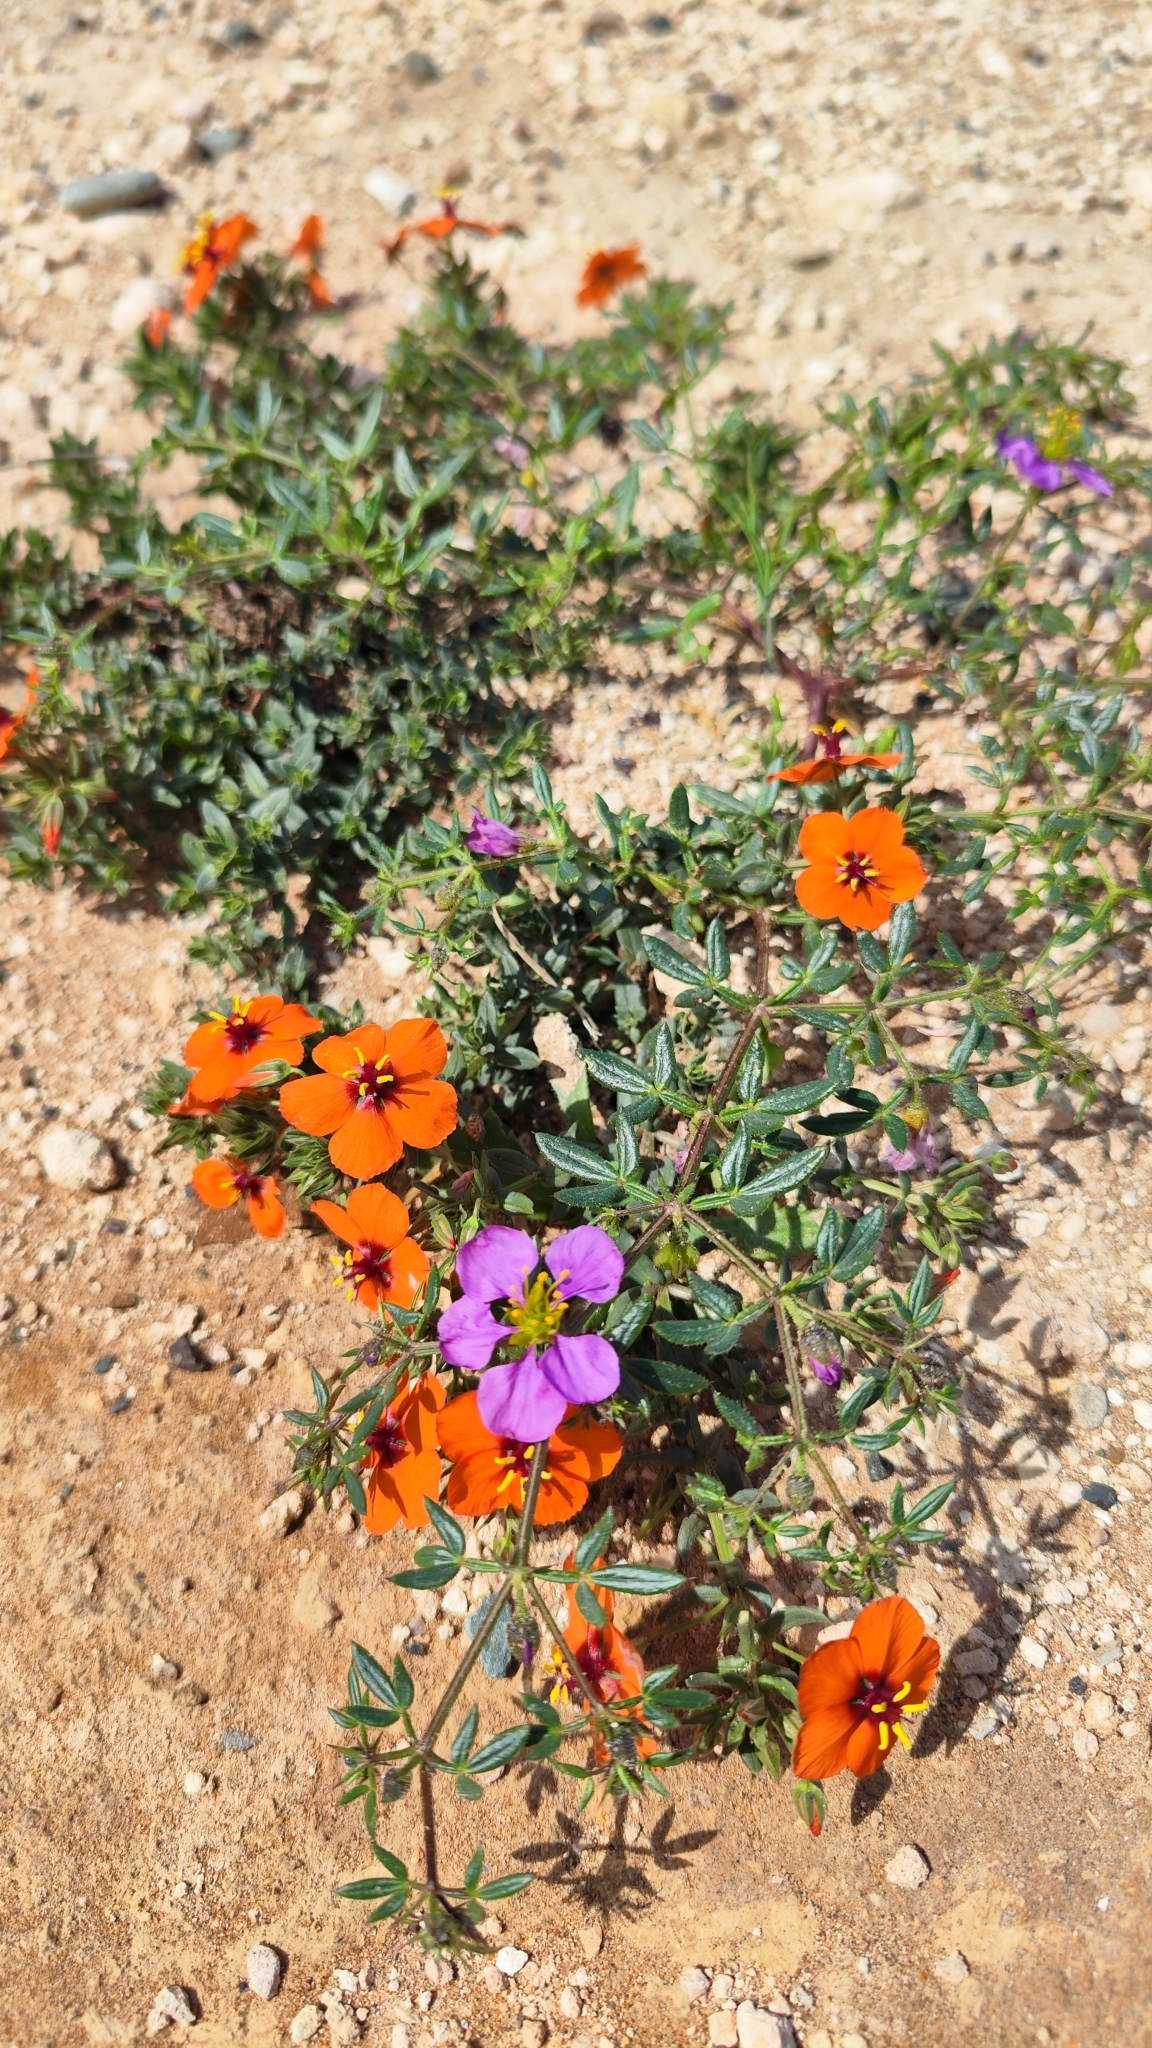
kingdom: Plantae
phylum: Tracheophyta
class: Magnoliopsida
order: Zygophyllales
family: Zygophyllaceae
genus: Fagonia
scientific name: Fagonia cretica
